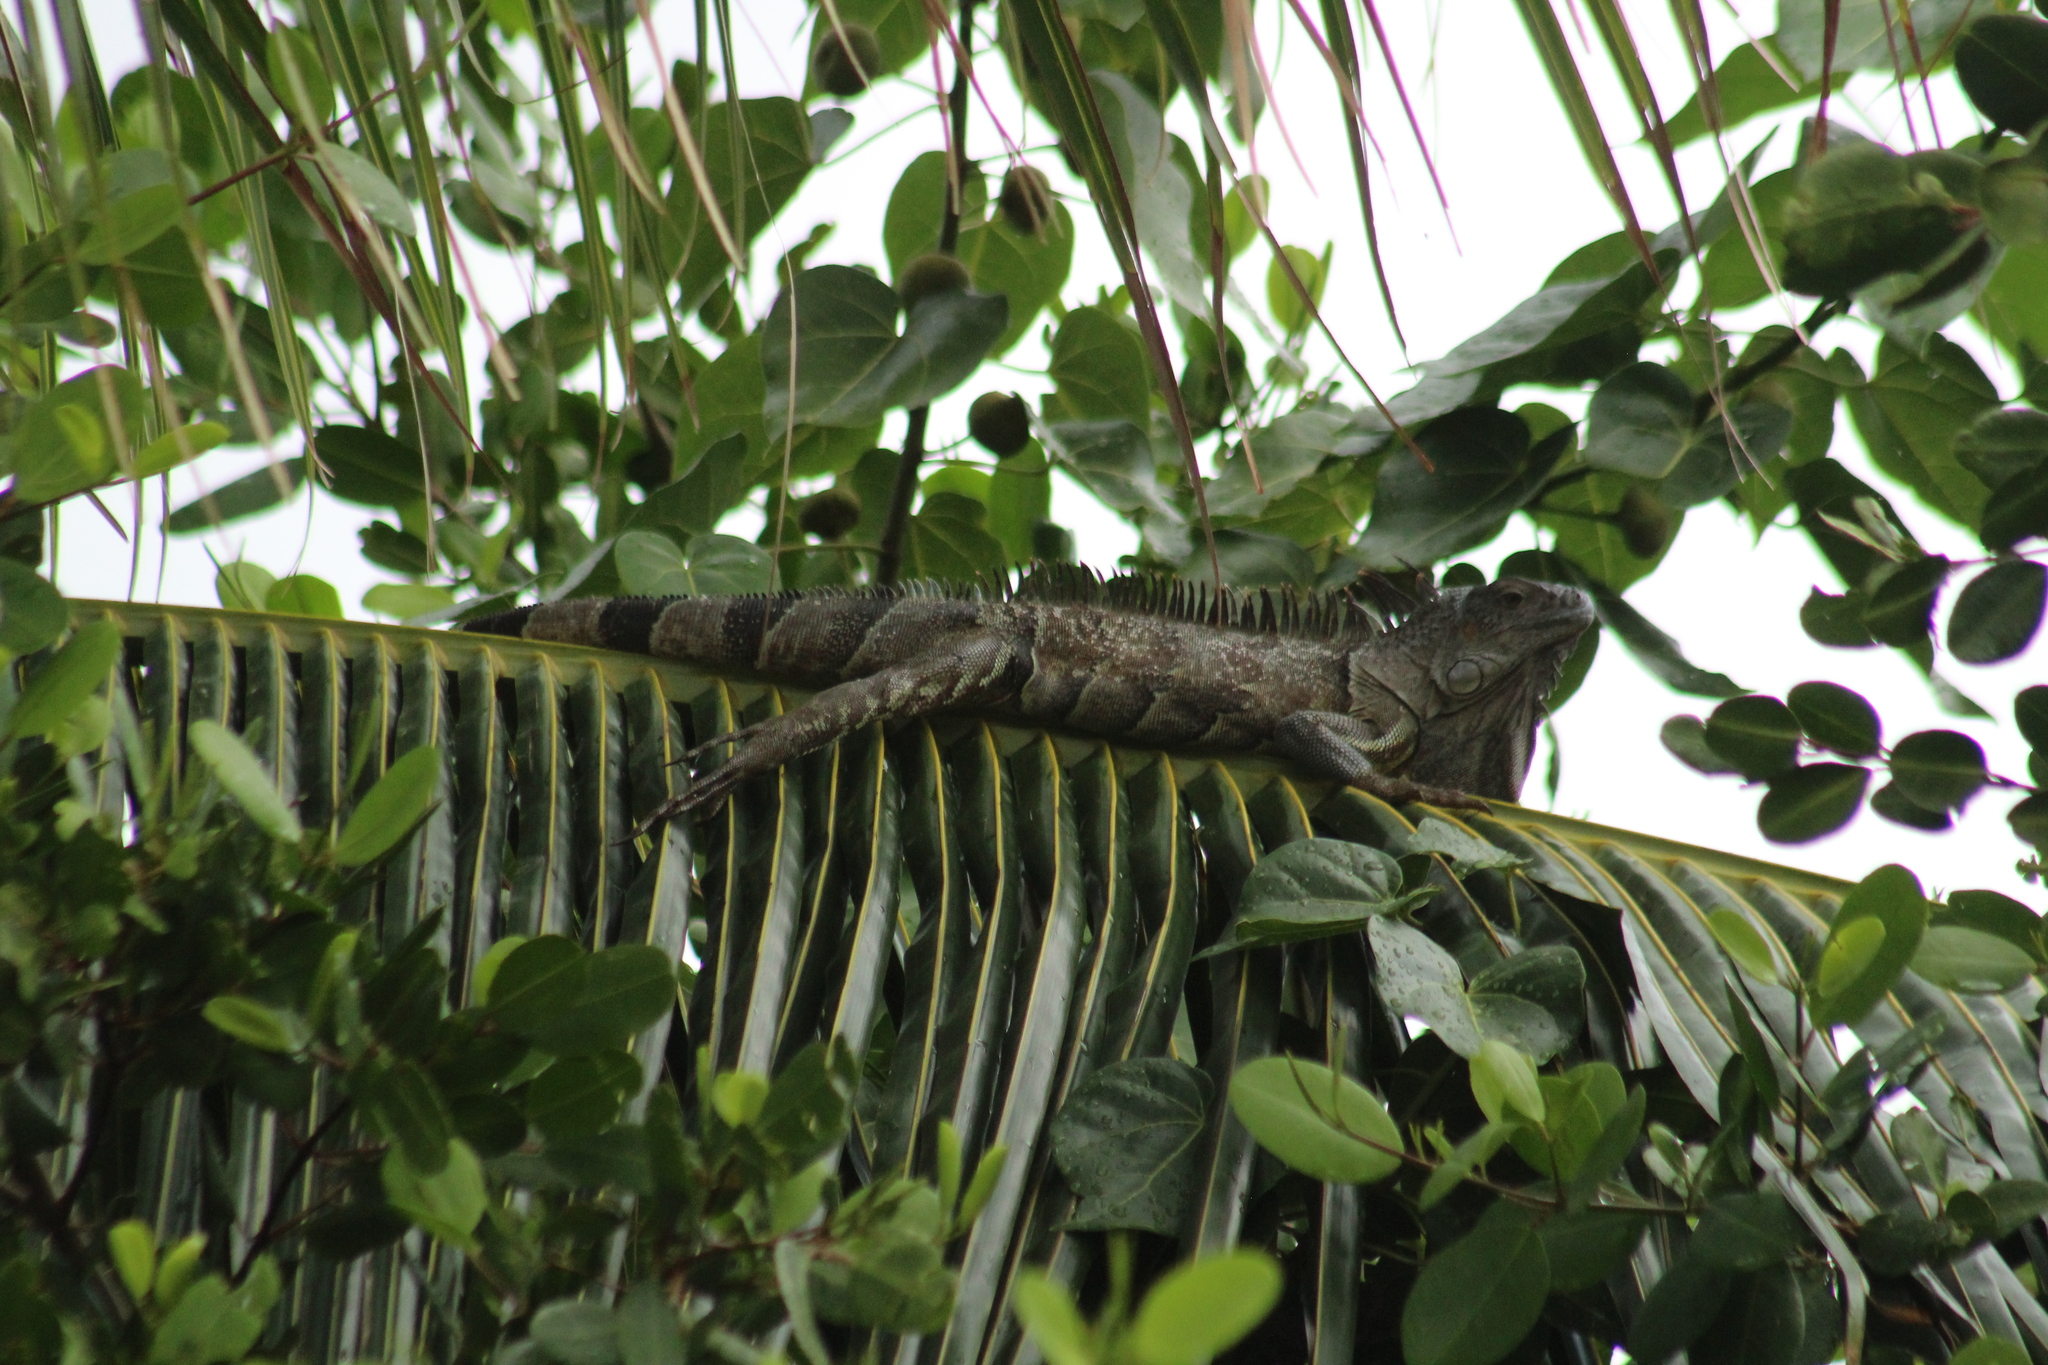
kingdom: Animalia
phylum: Chordata
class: Squamata
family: Iguanidae
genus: Iguana
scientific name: Iguana iguana
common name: Green iguana
